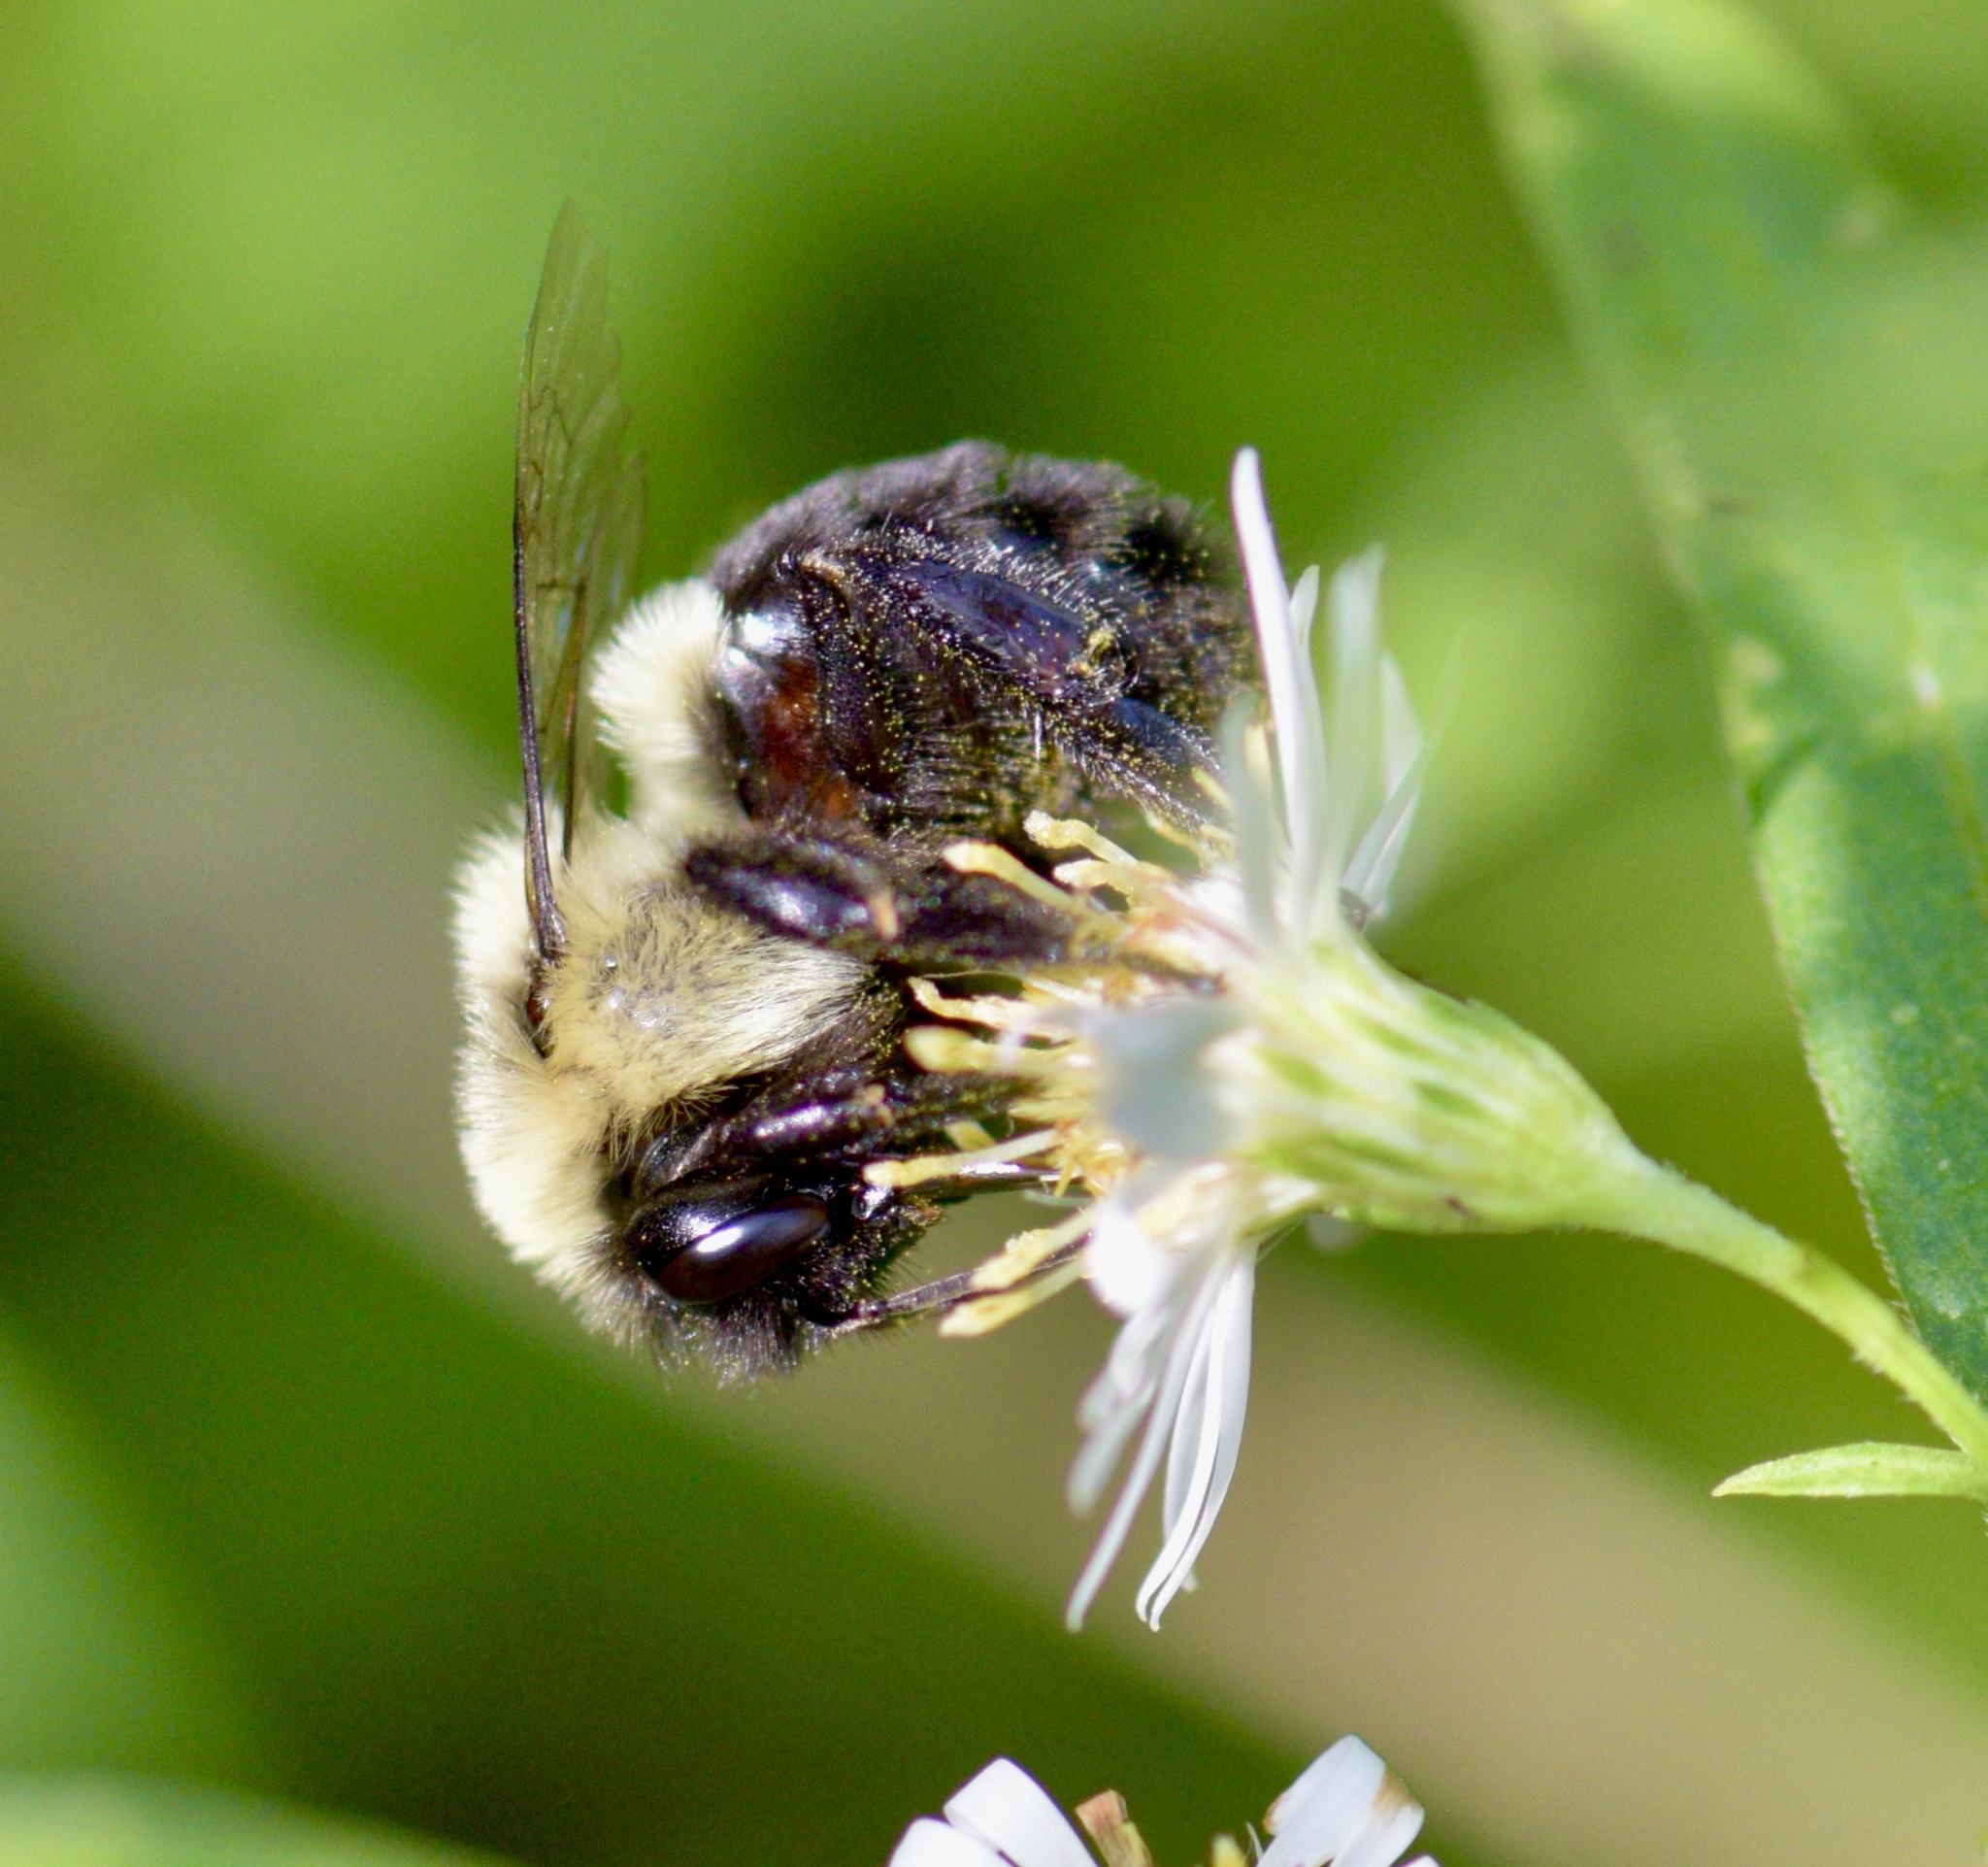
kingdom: Animalia
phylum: Arthropoda
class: Insecta
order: Hymenoptera
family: Apidae
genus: Bombus
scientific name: Bombus impatiens
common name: Common eastern bumble bee
